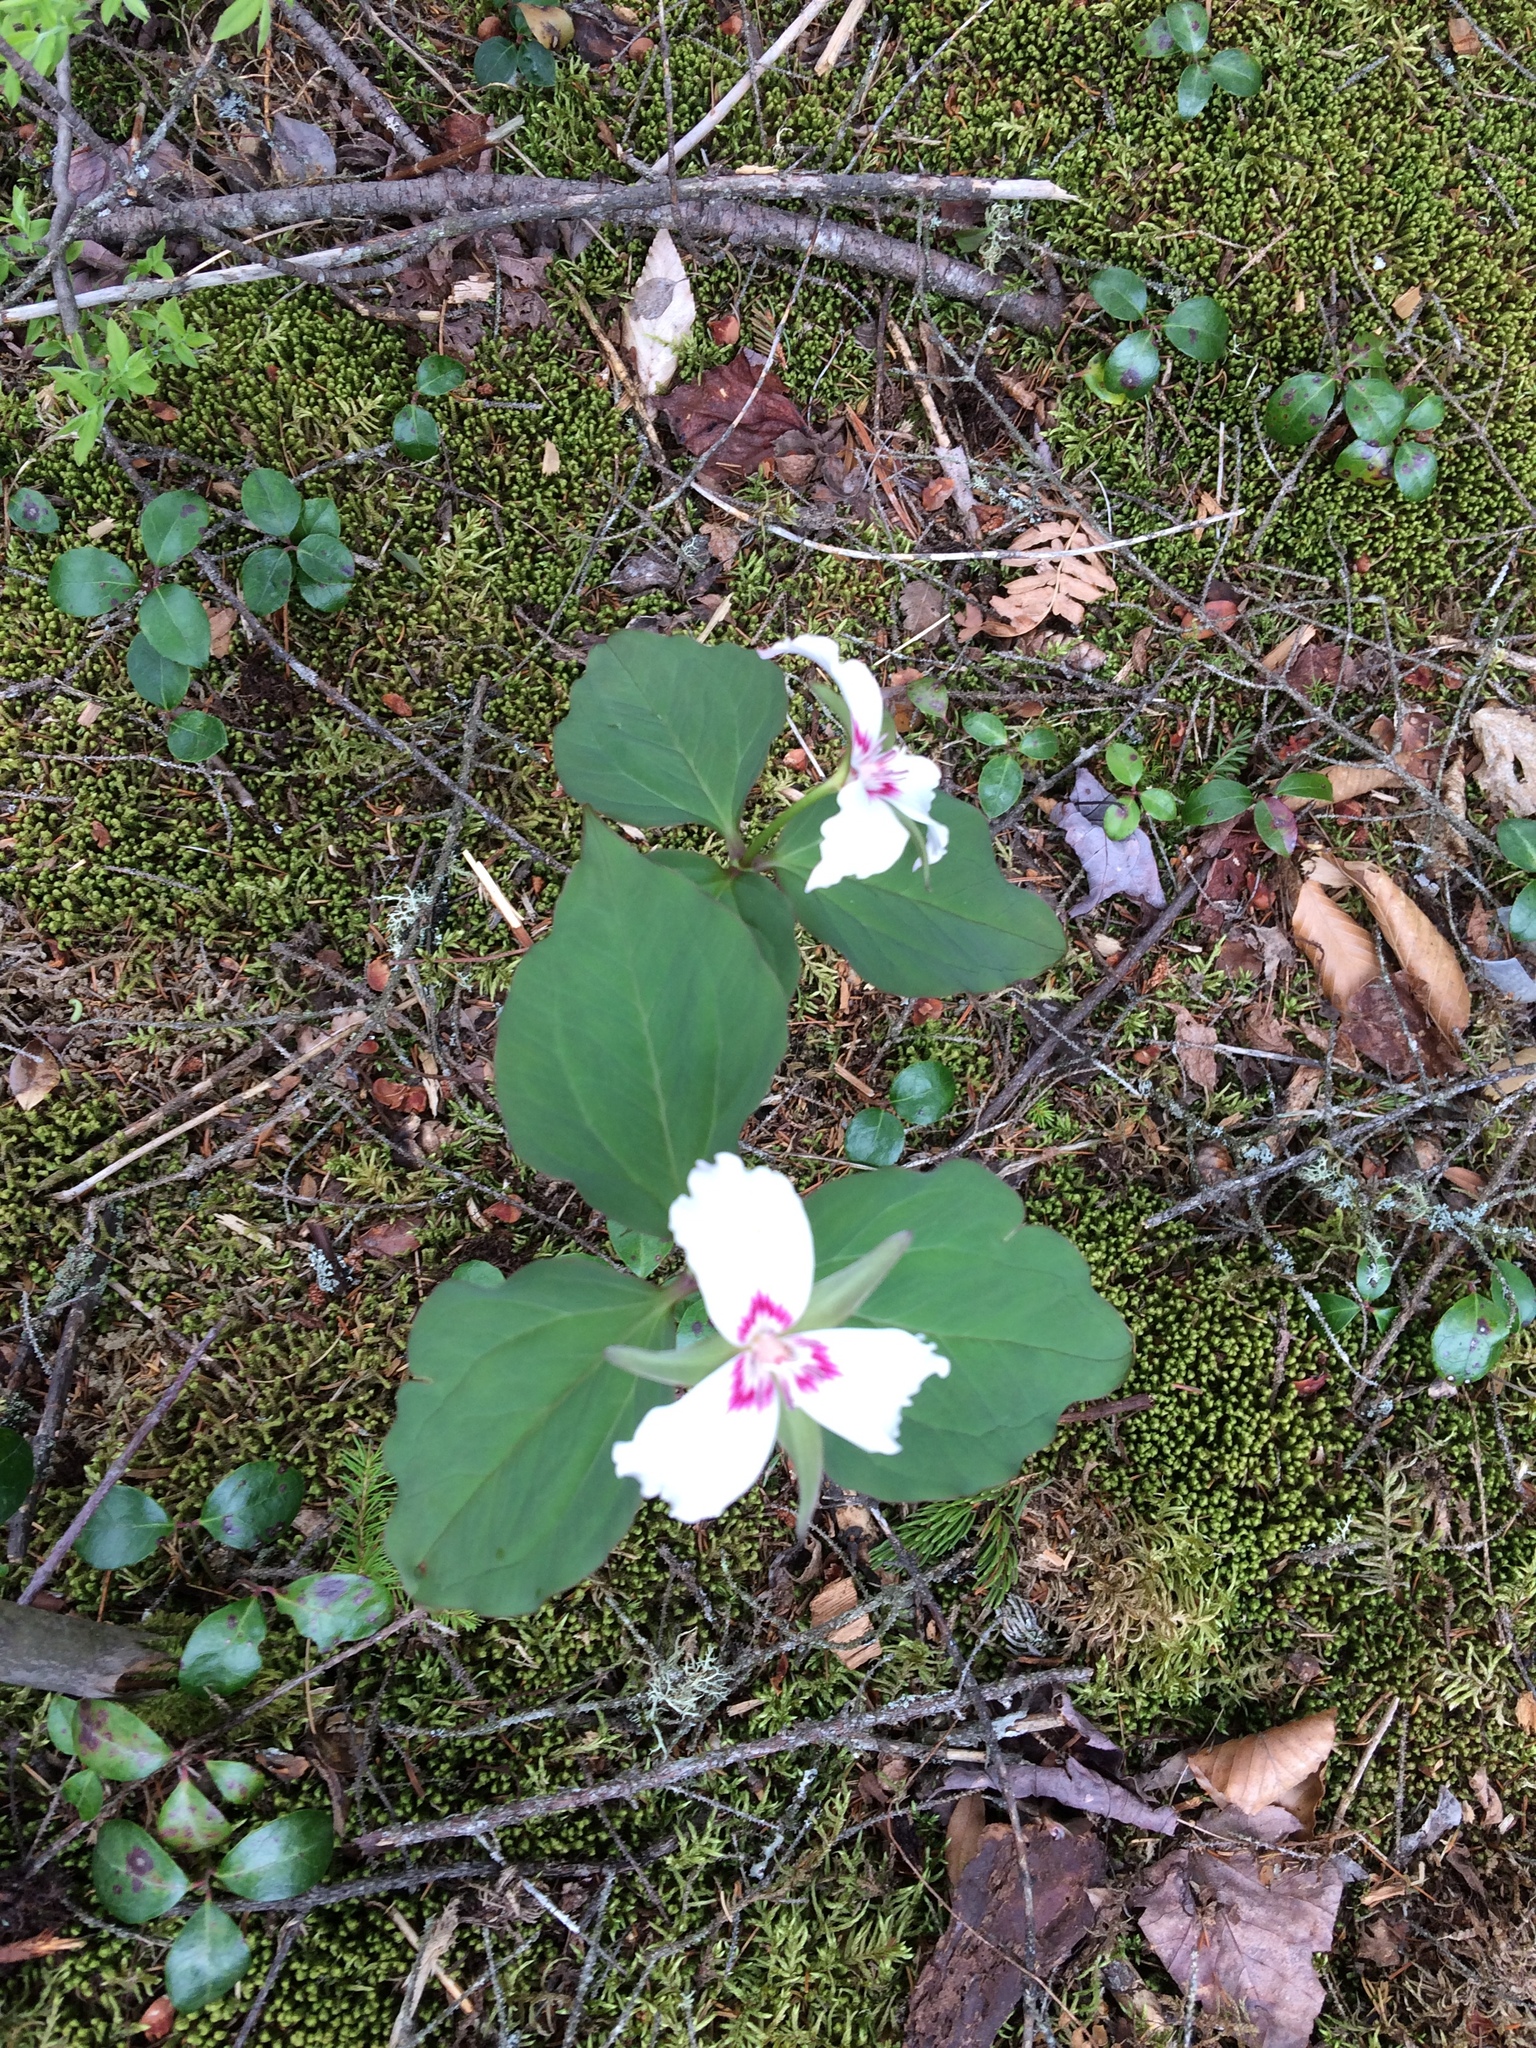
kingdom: Plantae
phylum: Tracheophyta
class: Liliopsida
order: Liliales
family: Melanthiaceae
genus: Trillium
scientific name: Trillium undulatum
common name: Paint trillium
